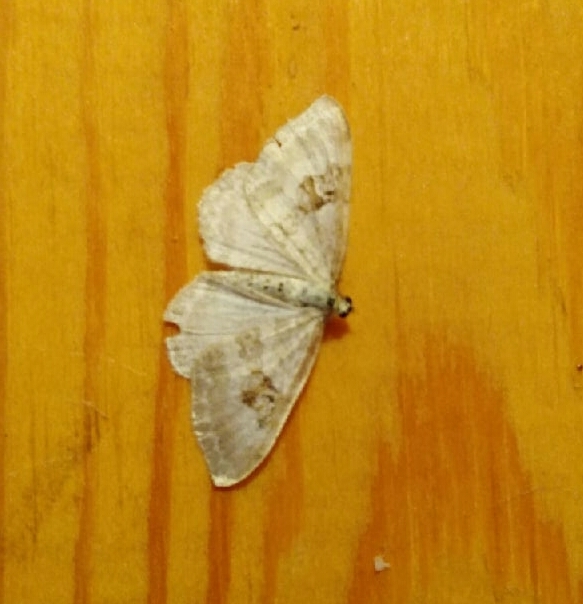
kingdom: Animalia
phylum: Arthropoda
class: Insecta
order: Lepidoptera
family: Geometridae
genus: Xanthorhoe
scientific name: Xanthorhoe montanata
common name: Silver-ground carpet
